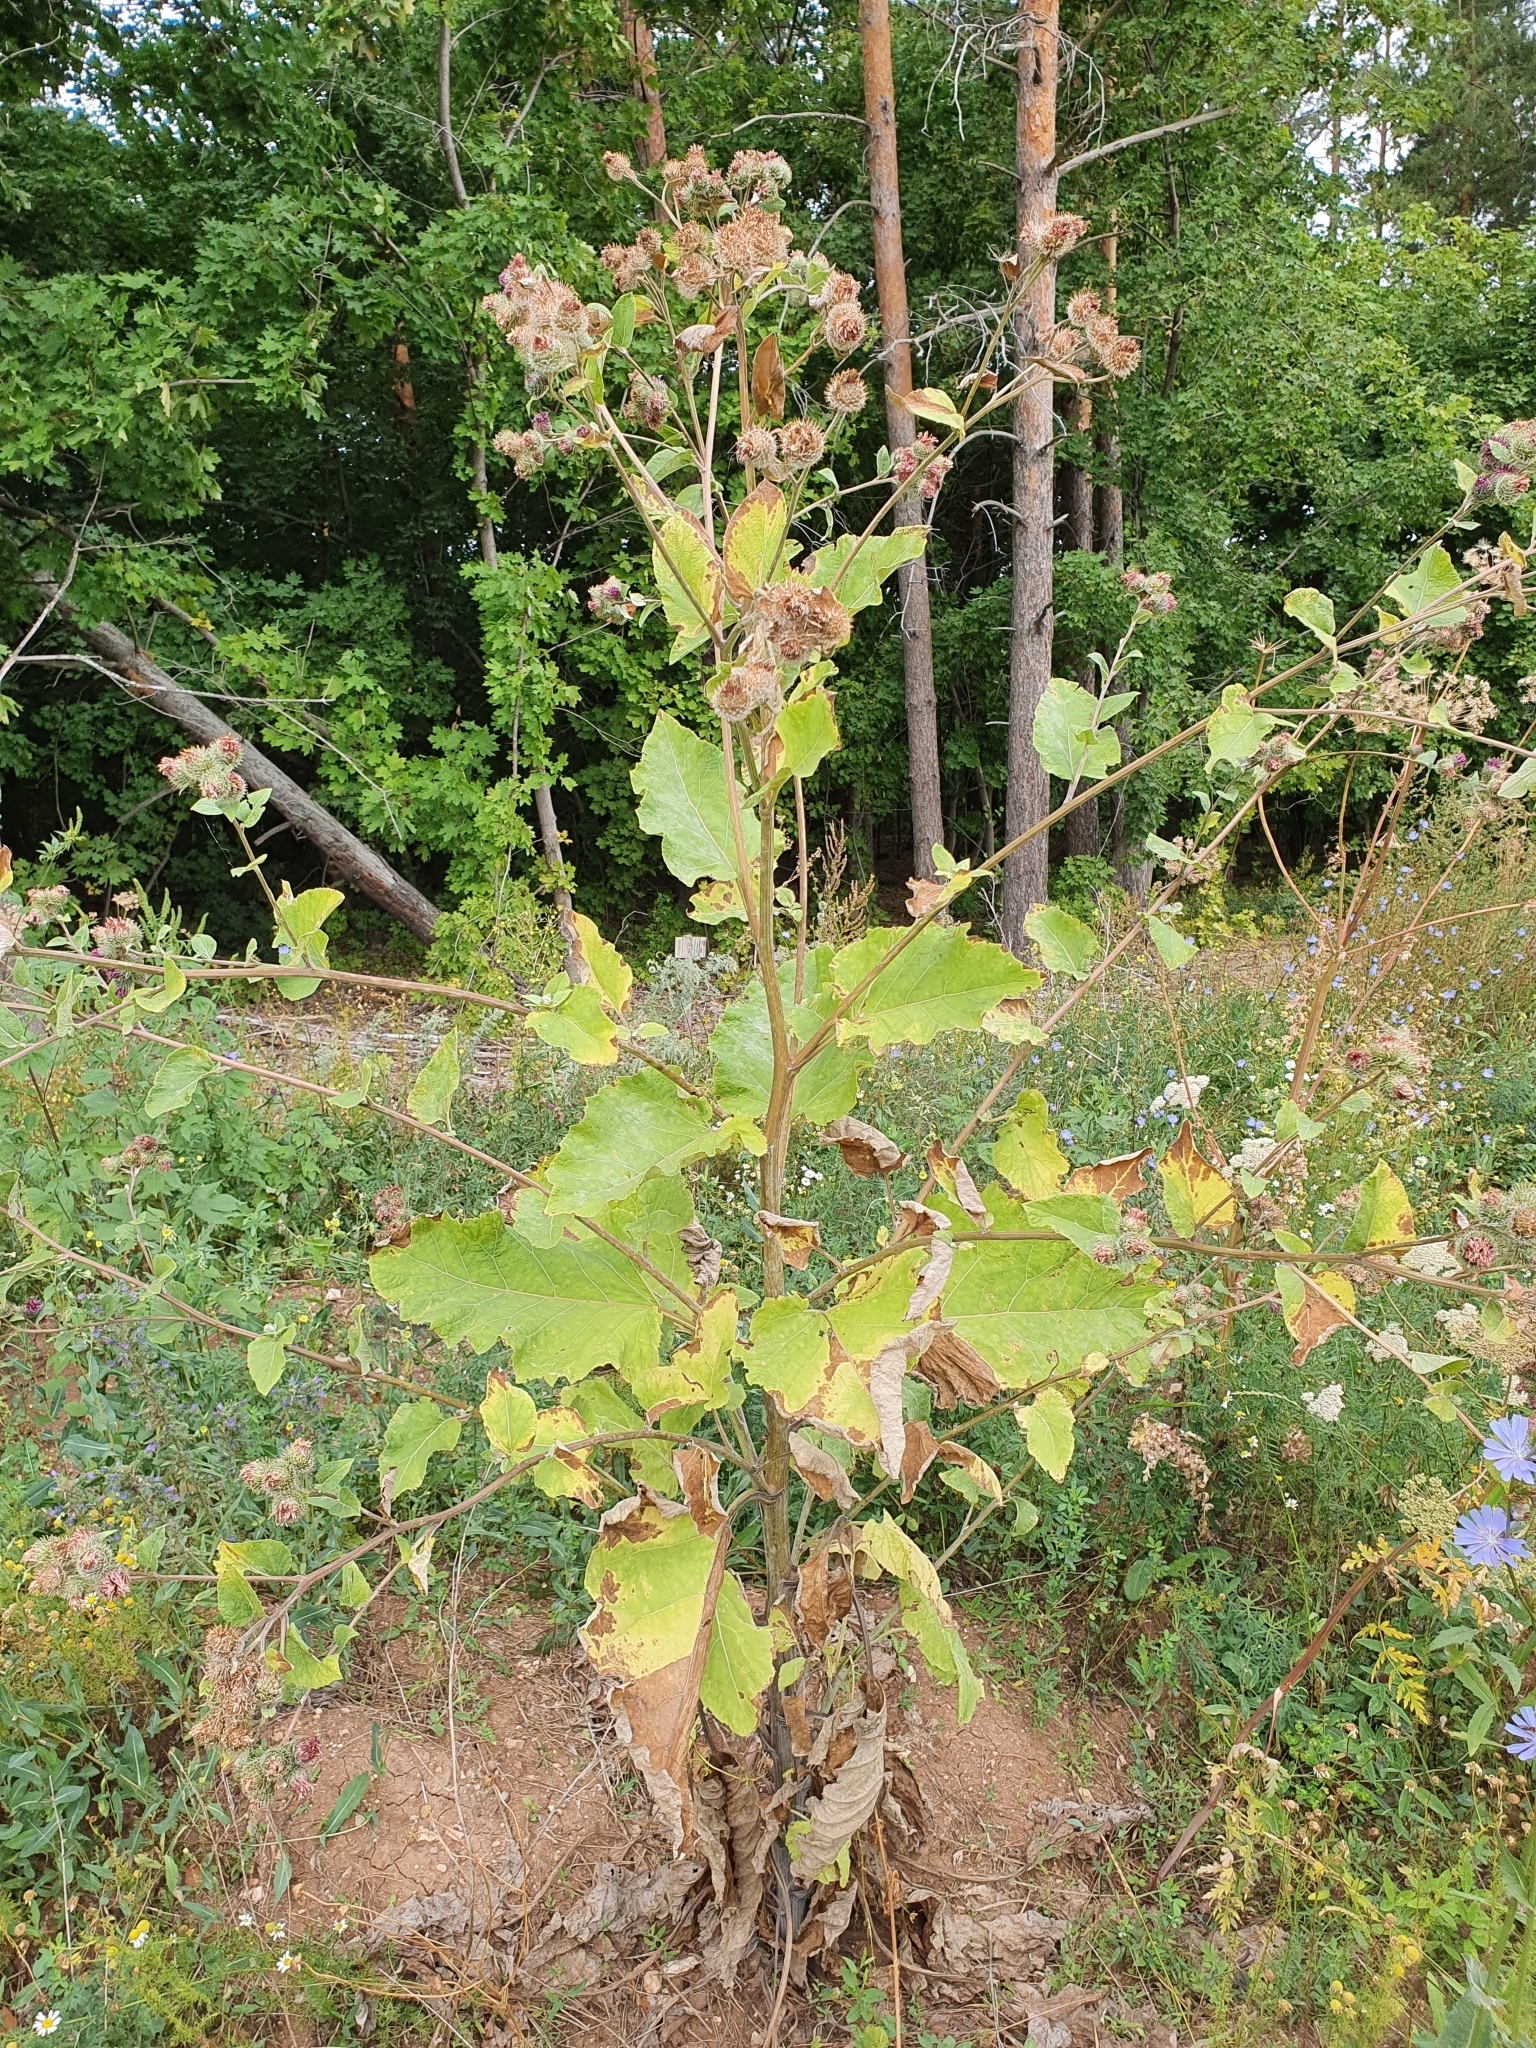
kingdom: Plantae
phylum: Tracheophyta
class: Magnoliopsida
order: Asterales
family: Asteraceae
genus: Arctium
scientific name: Arctium tomentosum
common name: Woolly burdock
